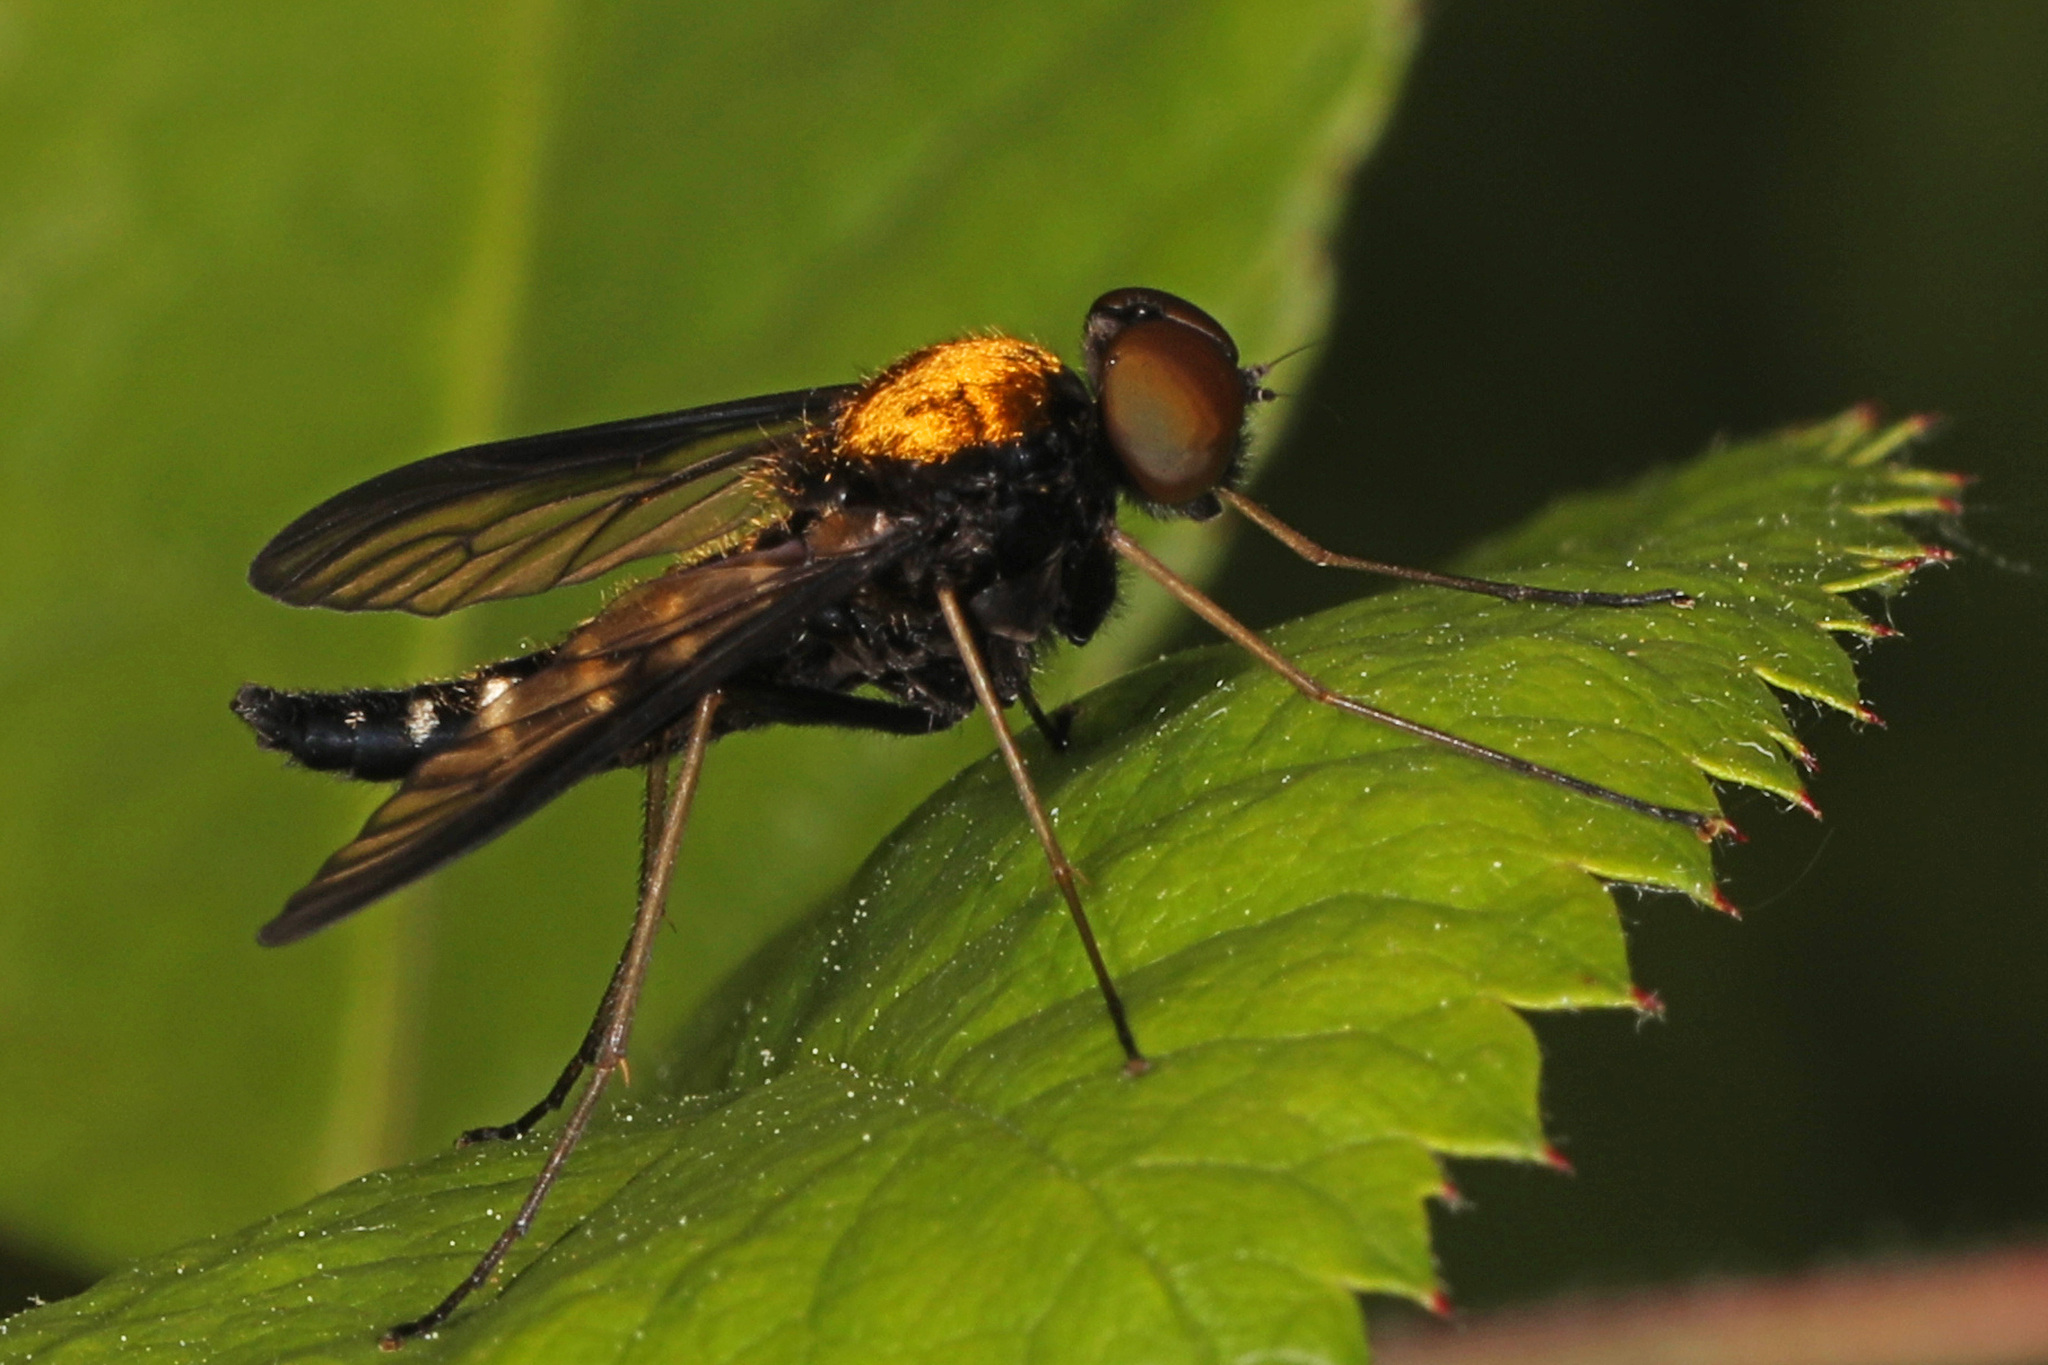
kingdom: Animalia
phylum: Arthropoda
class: Insecta
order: Diptera
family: Rhagionidae
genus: Chrysopilus
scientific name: Chrysopilus thoracicus
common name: Golden-backed snipe fly
